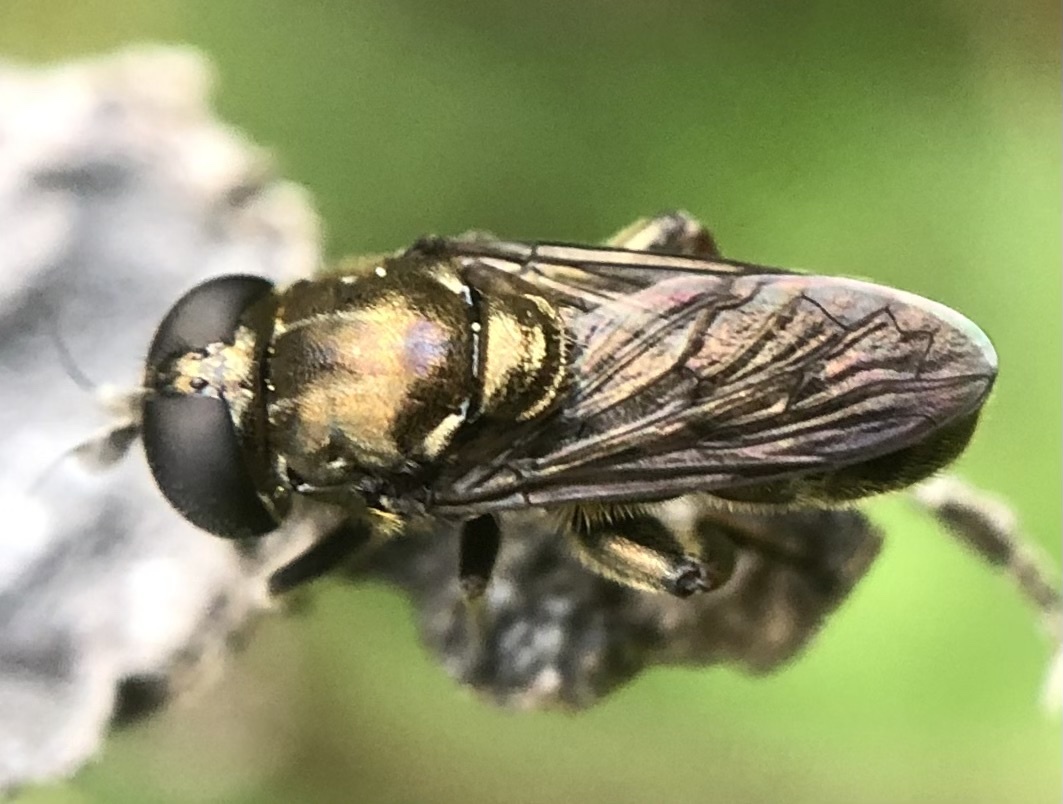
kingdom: Animalia
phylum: Arthropoda
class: Insecta
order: Diptera
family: Syrphidae
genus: Eumerus
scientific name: Eumerus
